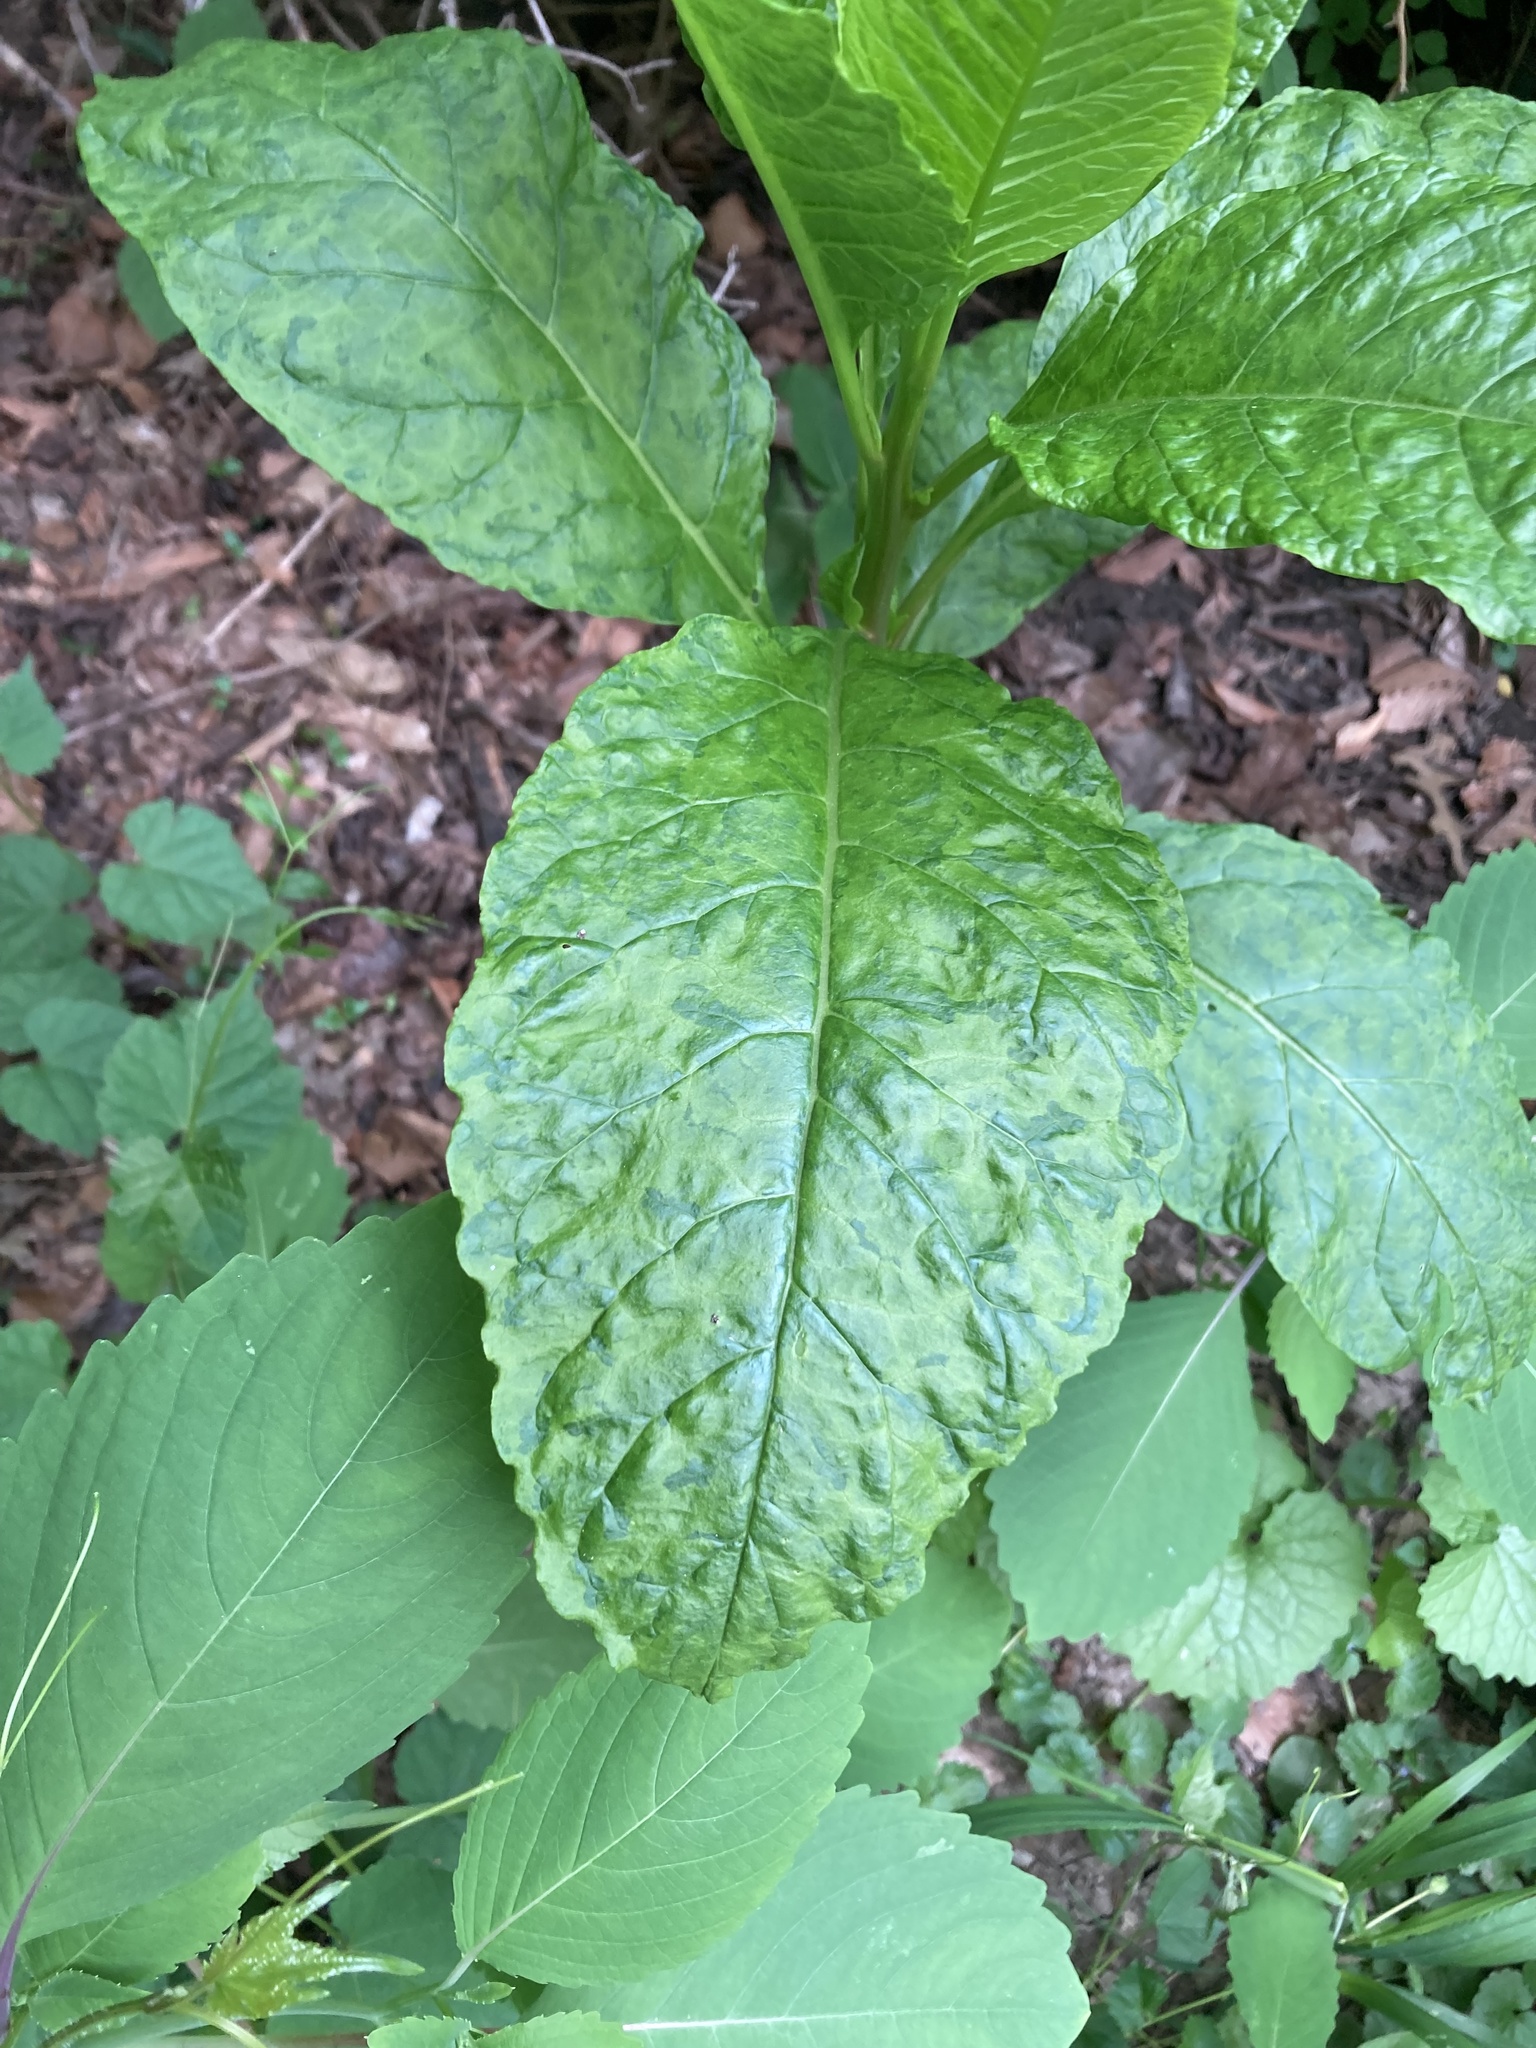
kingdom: Viruses
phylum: Pisuviricota
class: Stelpaviricetes
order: Patatavirales
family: Potyviridae
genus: Potyvirus
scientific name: Potyvirus Pokeweed mosaic virus
